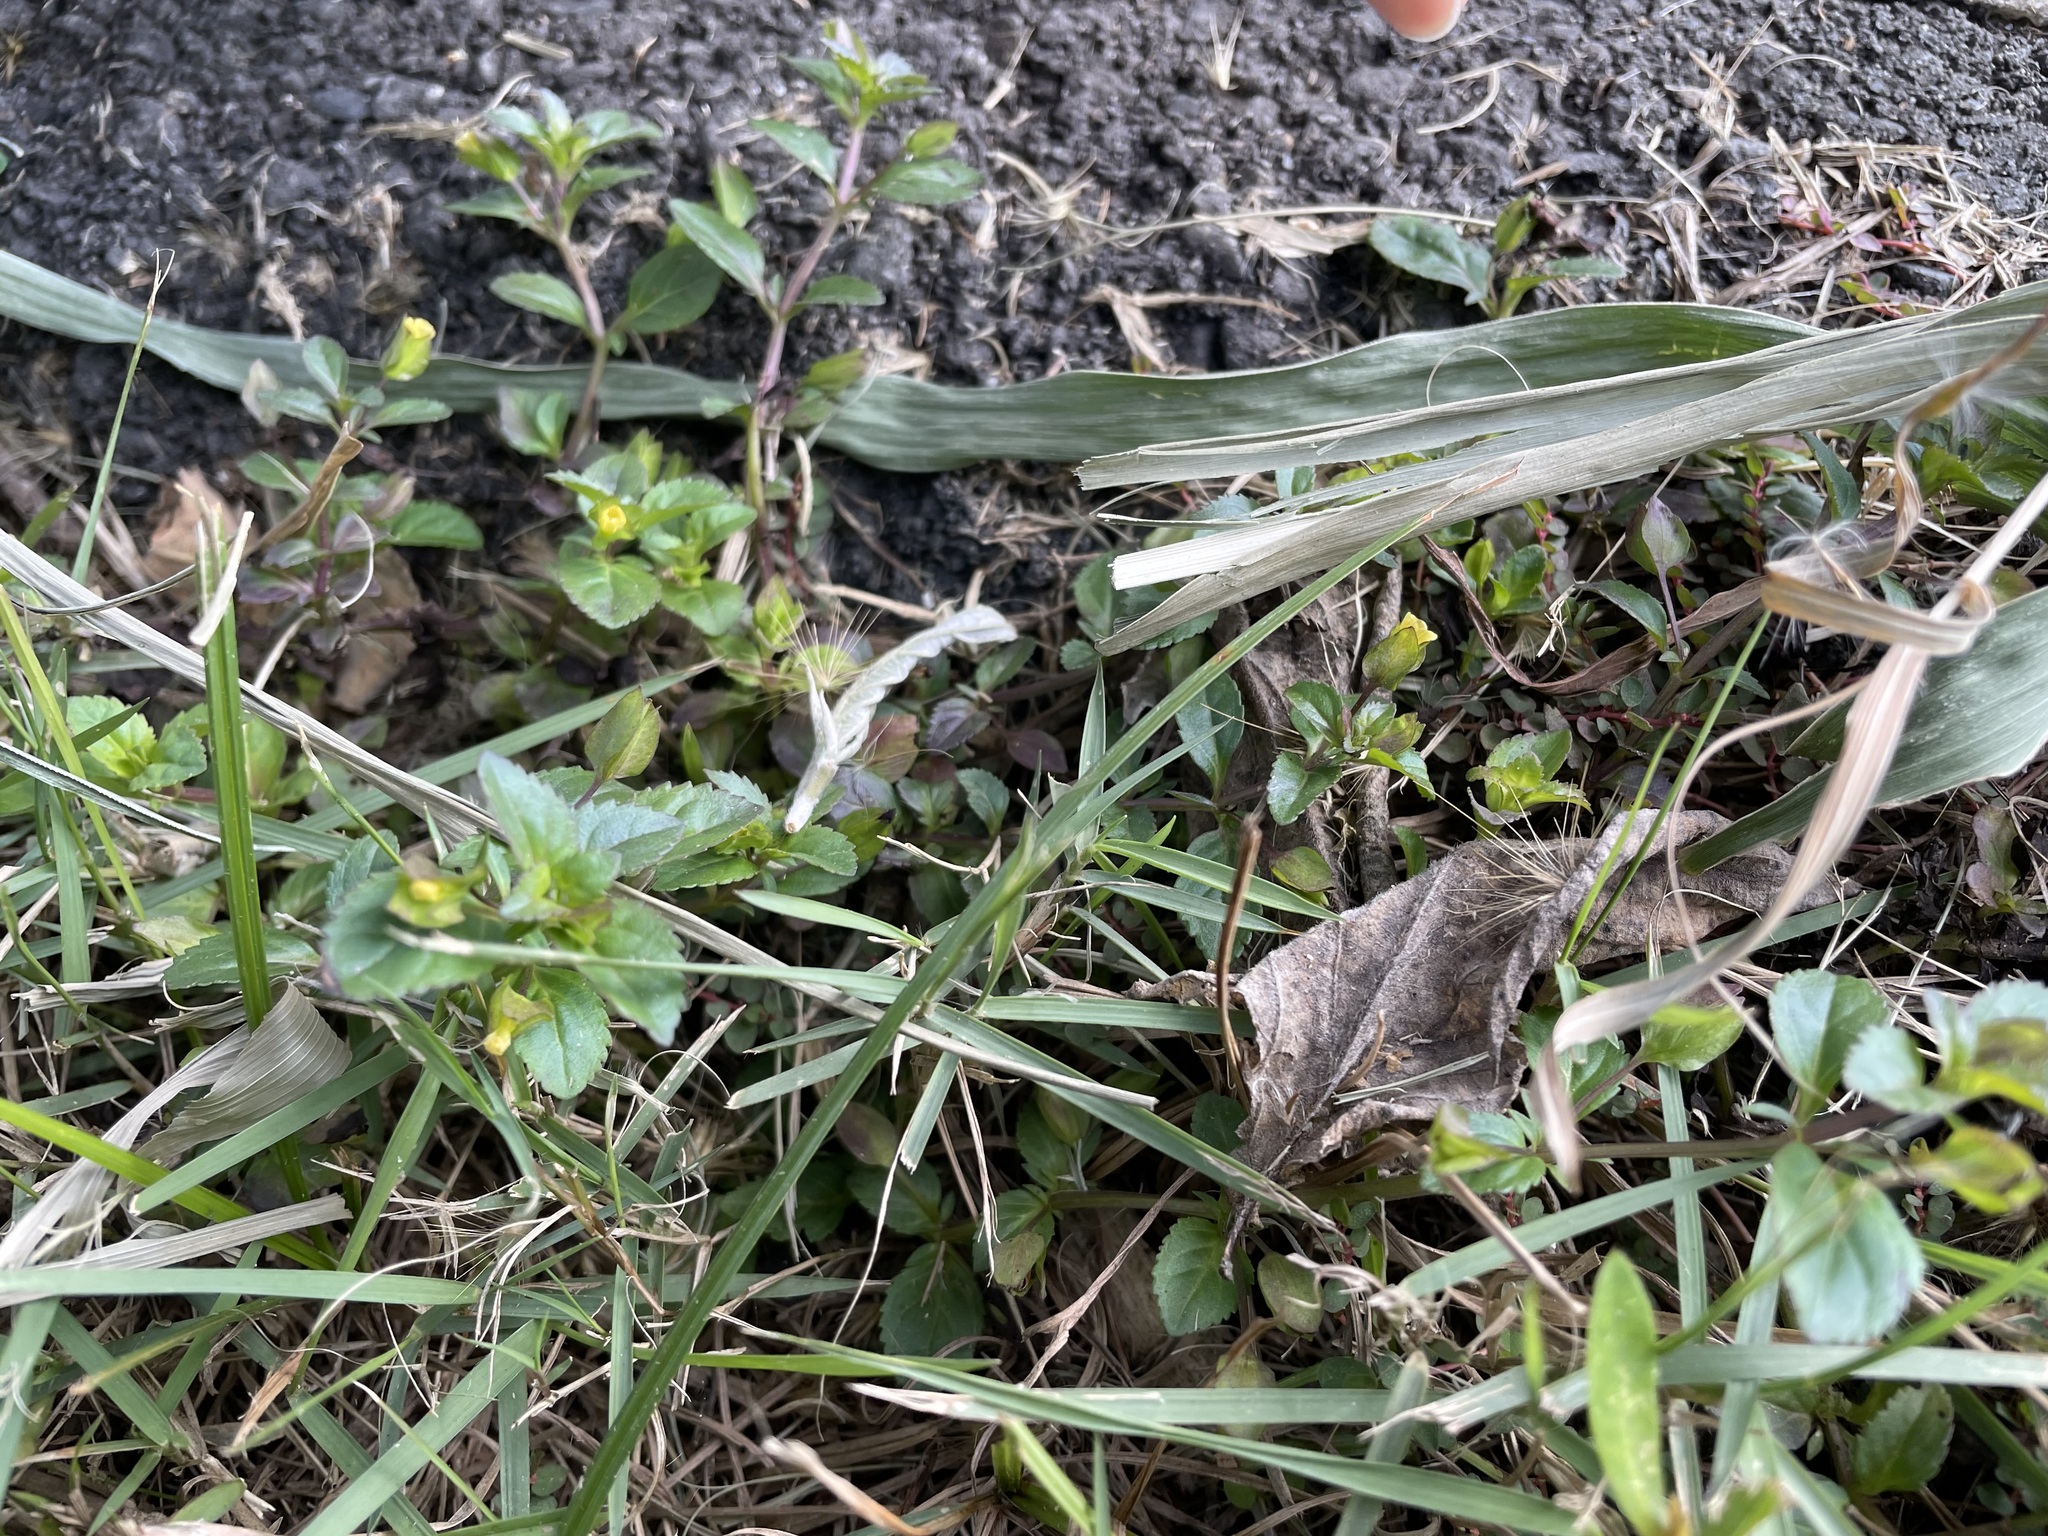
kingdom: Plantae
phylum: Tracheophyta
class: Magnoliopsida
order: Lamiales
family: Plantaginaceae
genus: Mecardonia
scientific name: Mecardonia procumbens
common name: Baby jump-up
